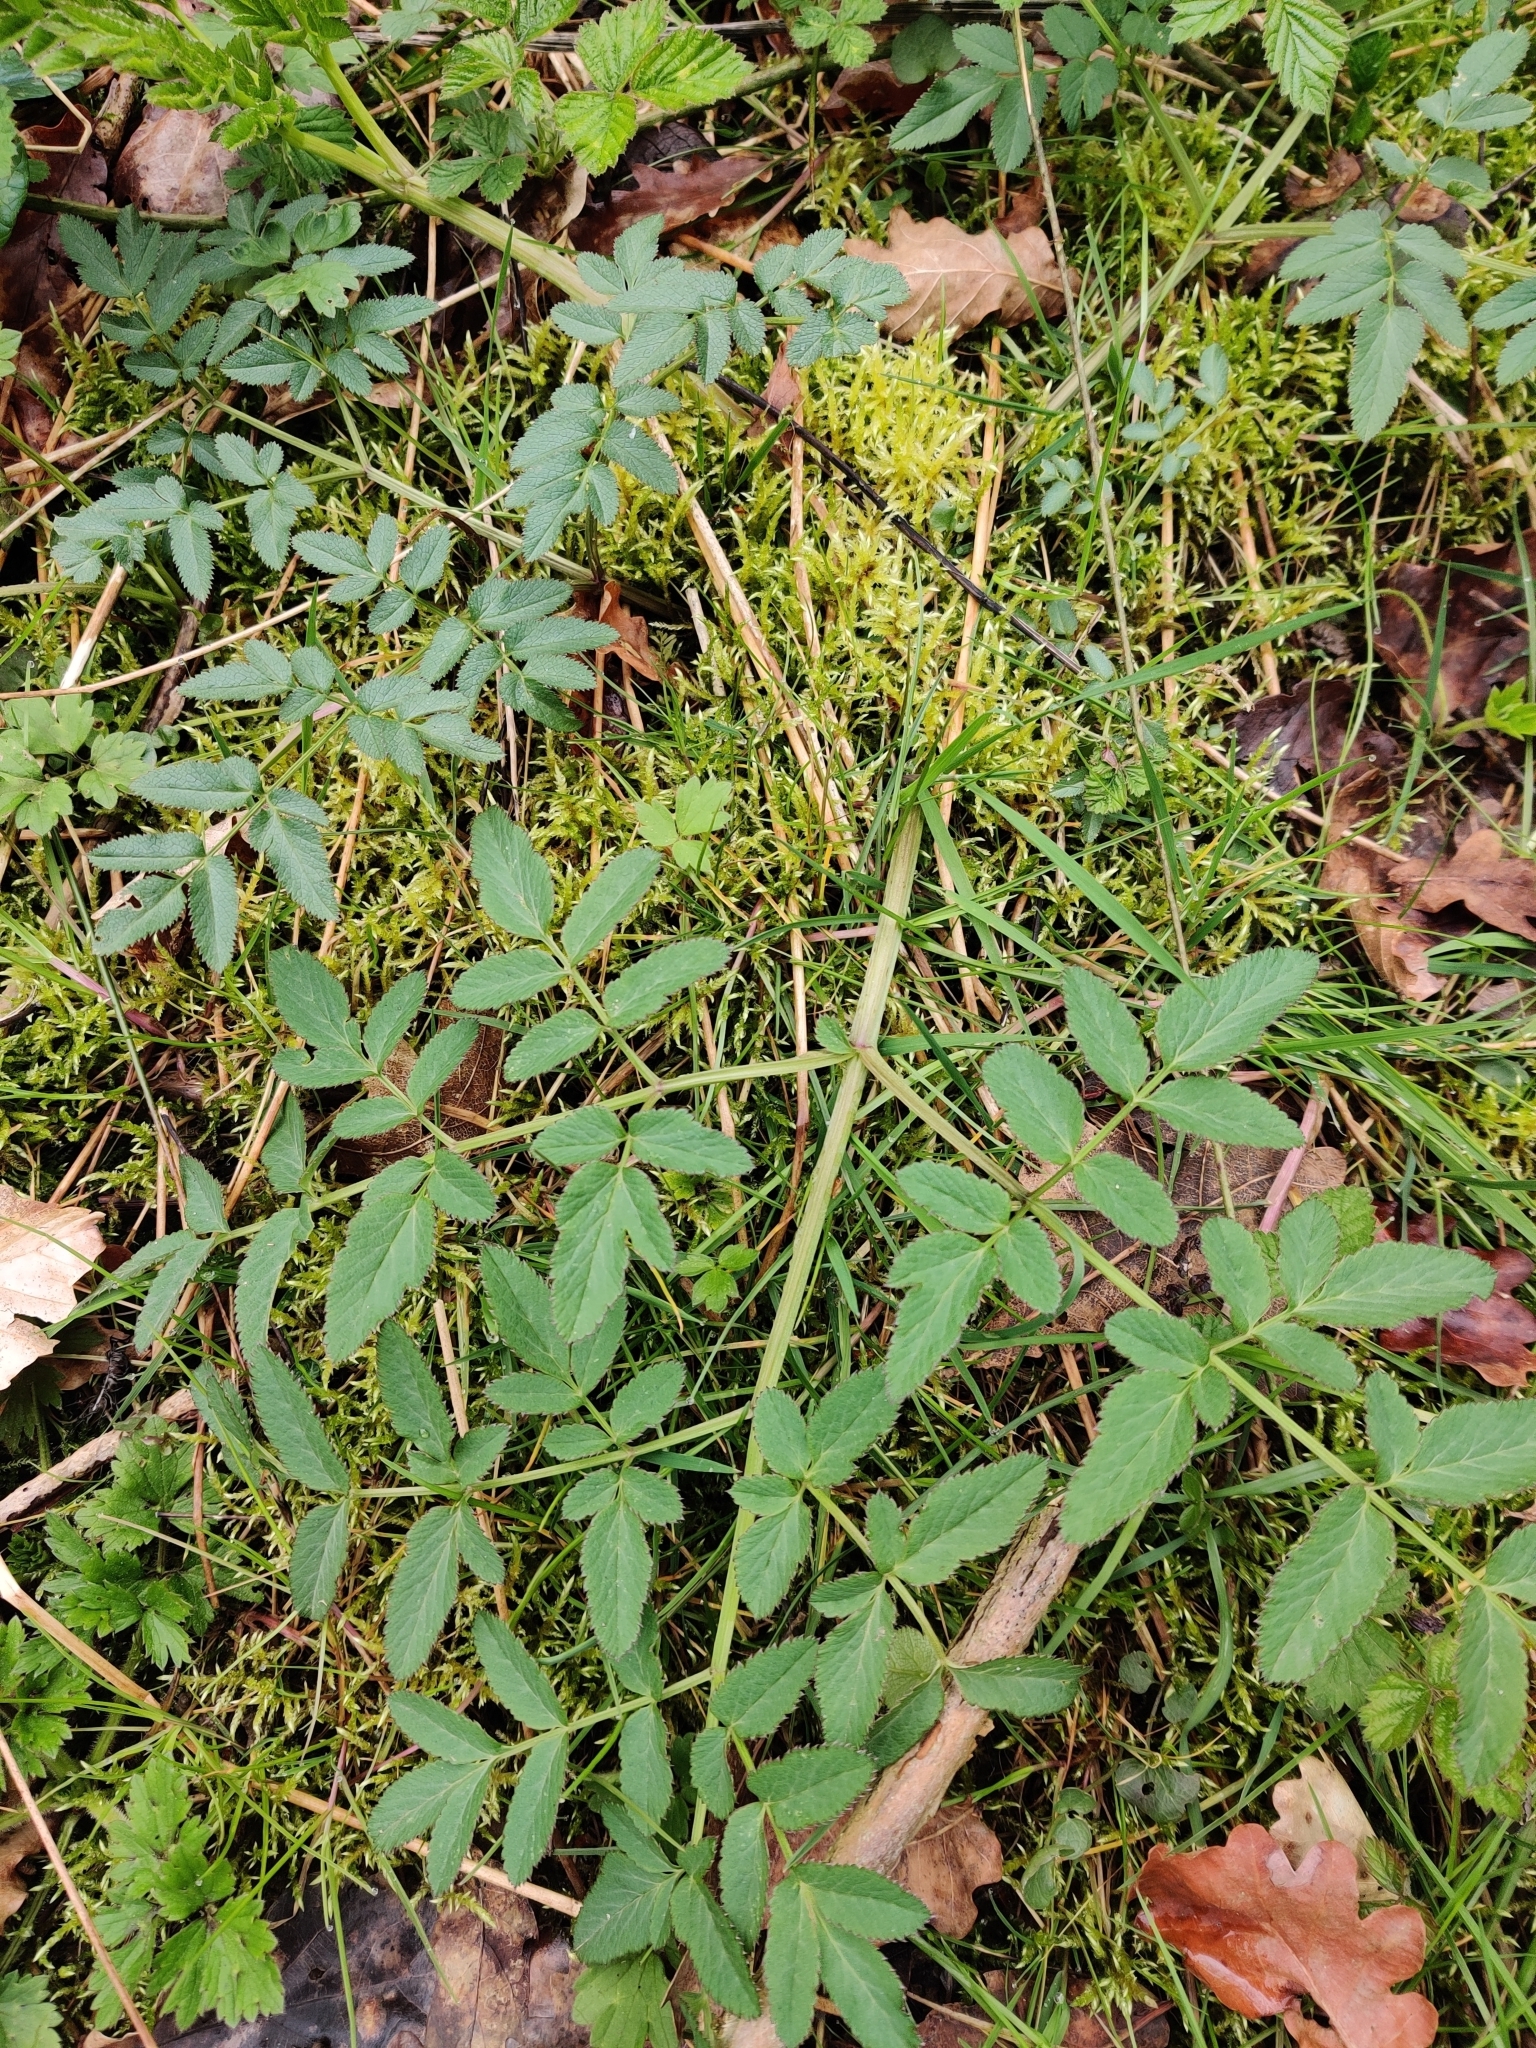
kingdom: Plantae
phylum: Tracheophyta
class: Magnoliopsida
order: Apiales
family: Apiaceae
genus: Angelica
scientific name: Angelica sylvestris
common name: Wild angelica
